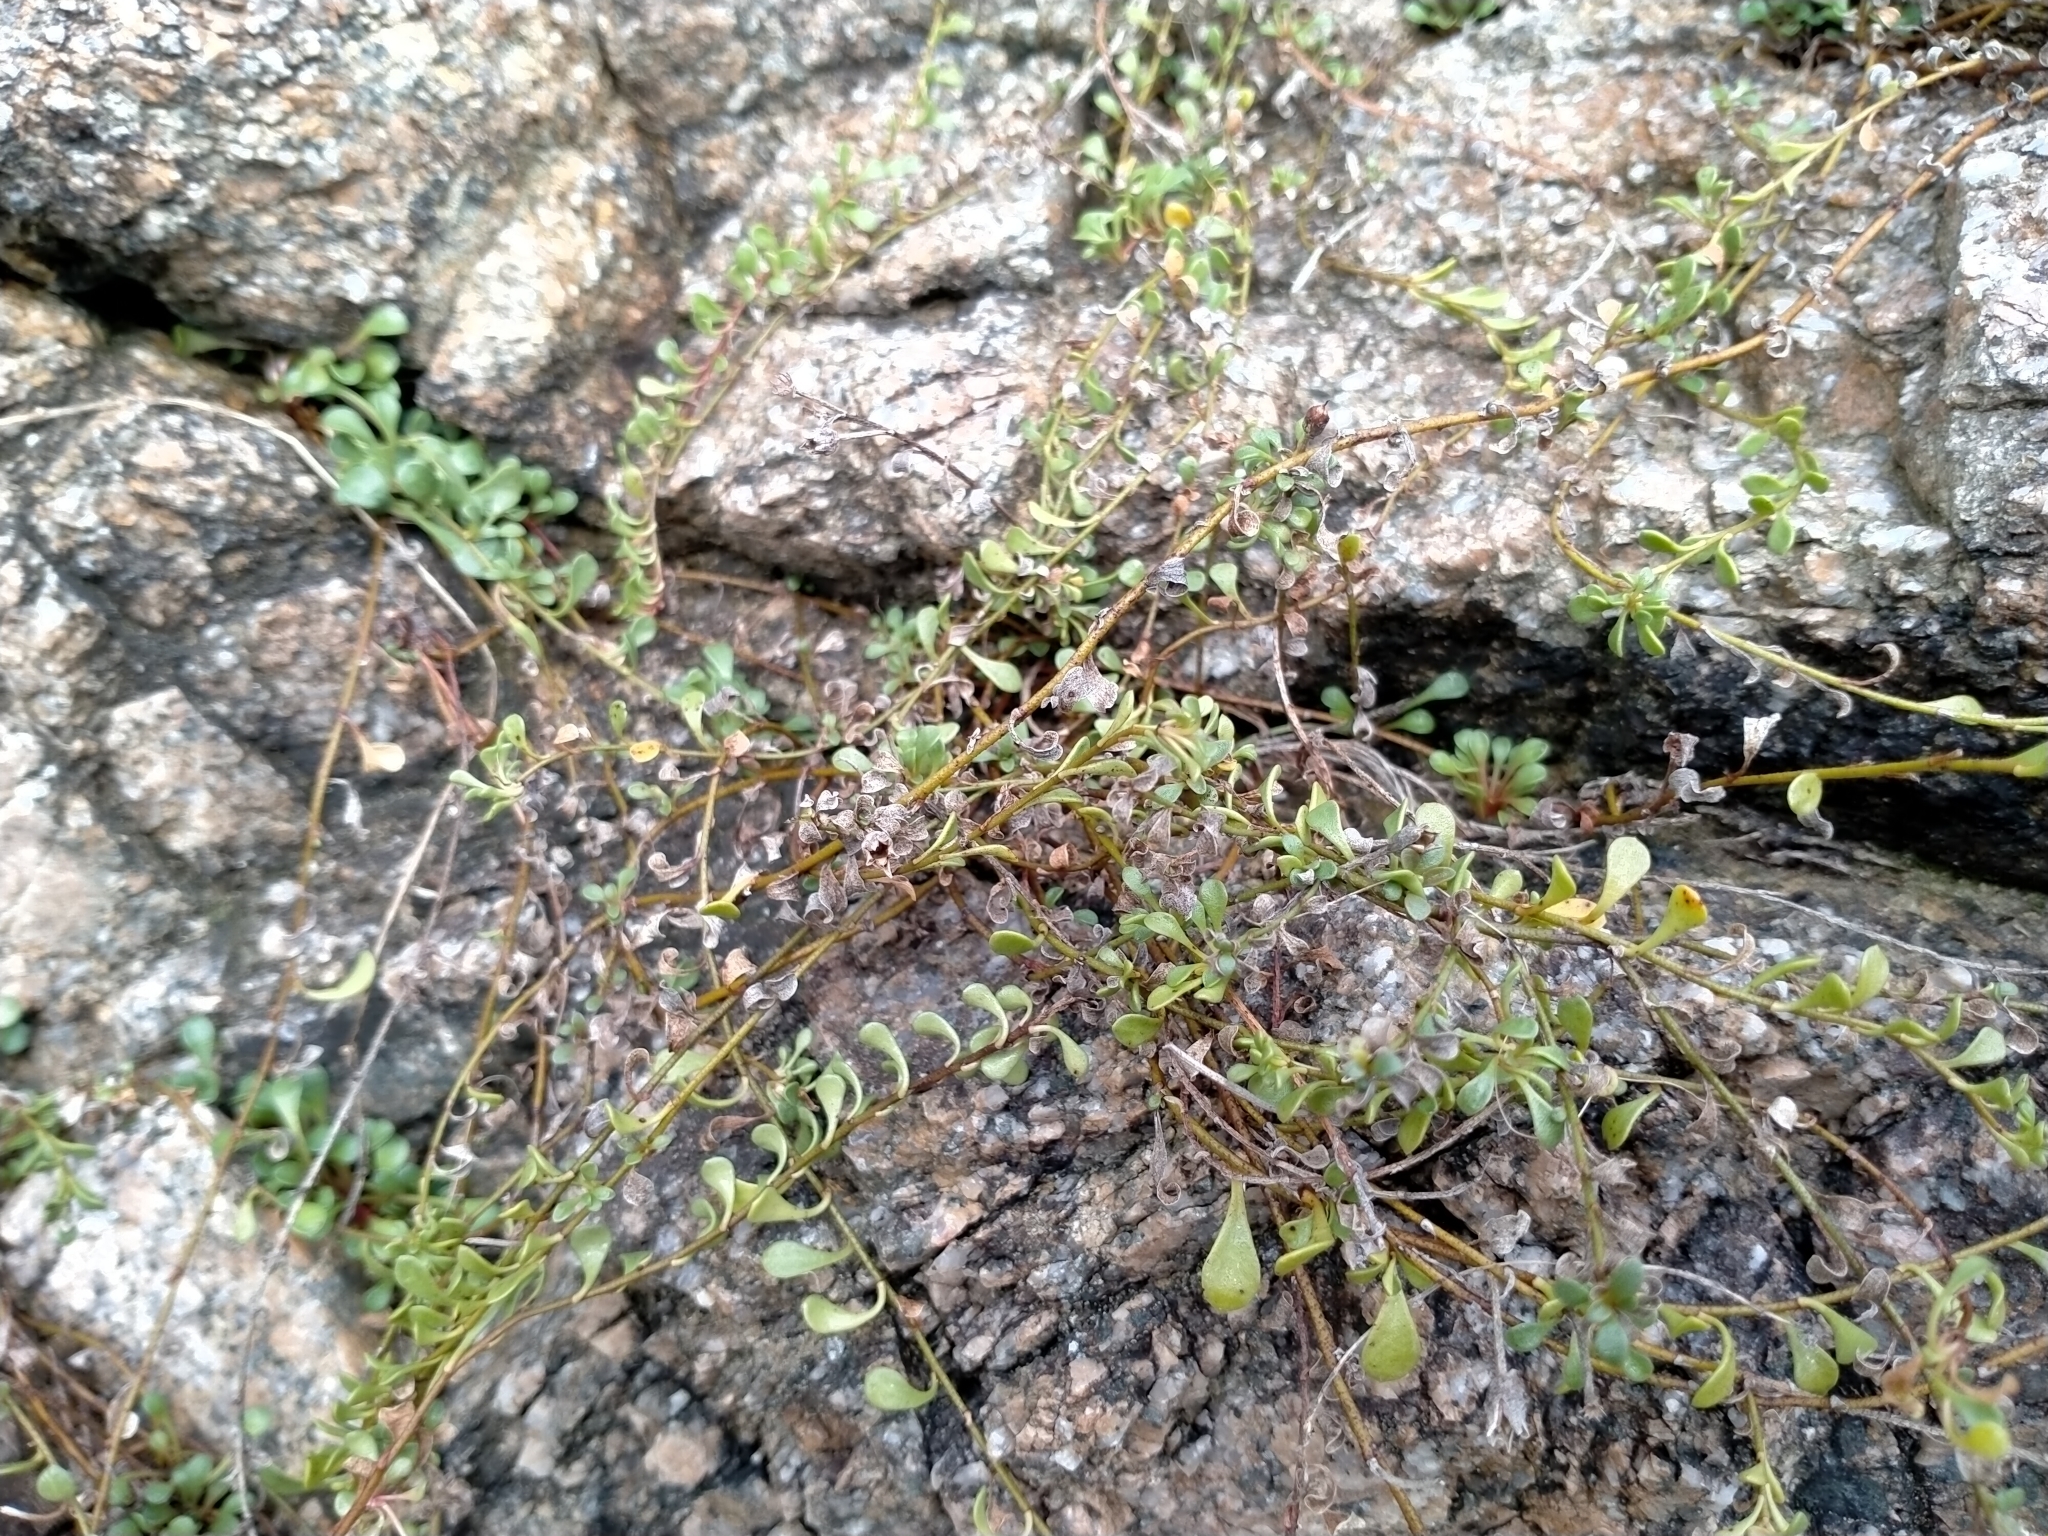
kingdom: Plantae
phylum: Tracheophyta
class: Magnoliopsida
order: Ericales
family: Primulaceae
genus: Samolus
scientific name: Samolus repens
